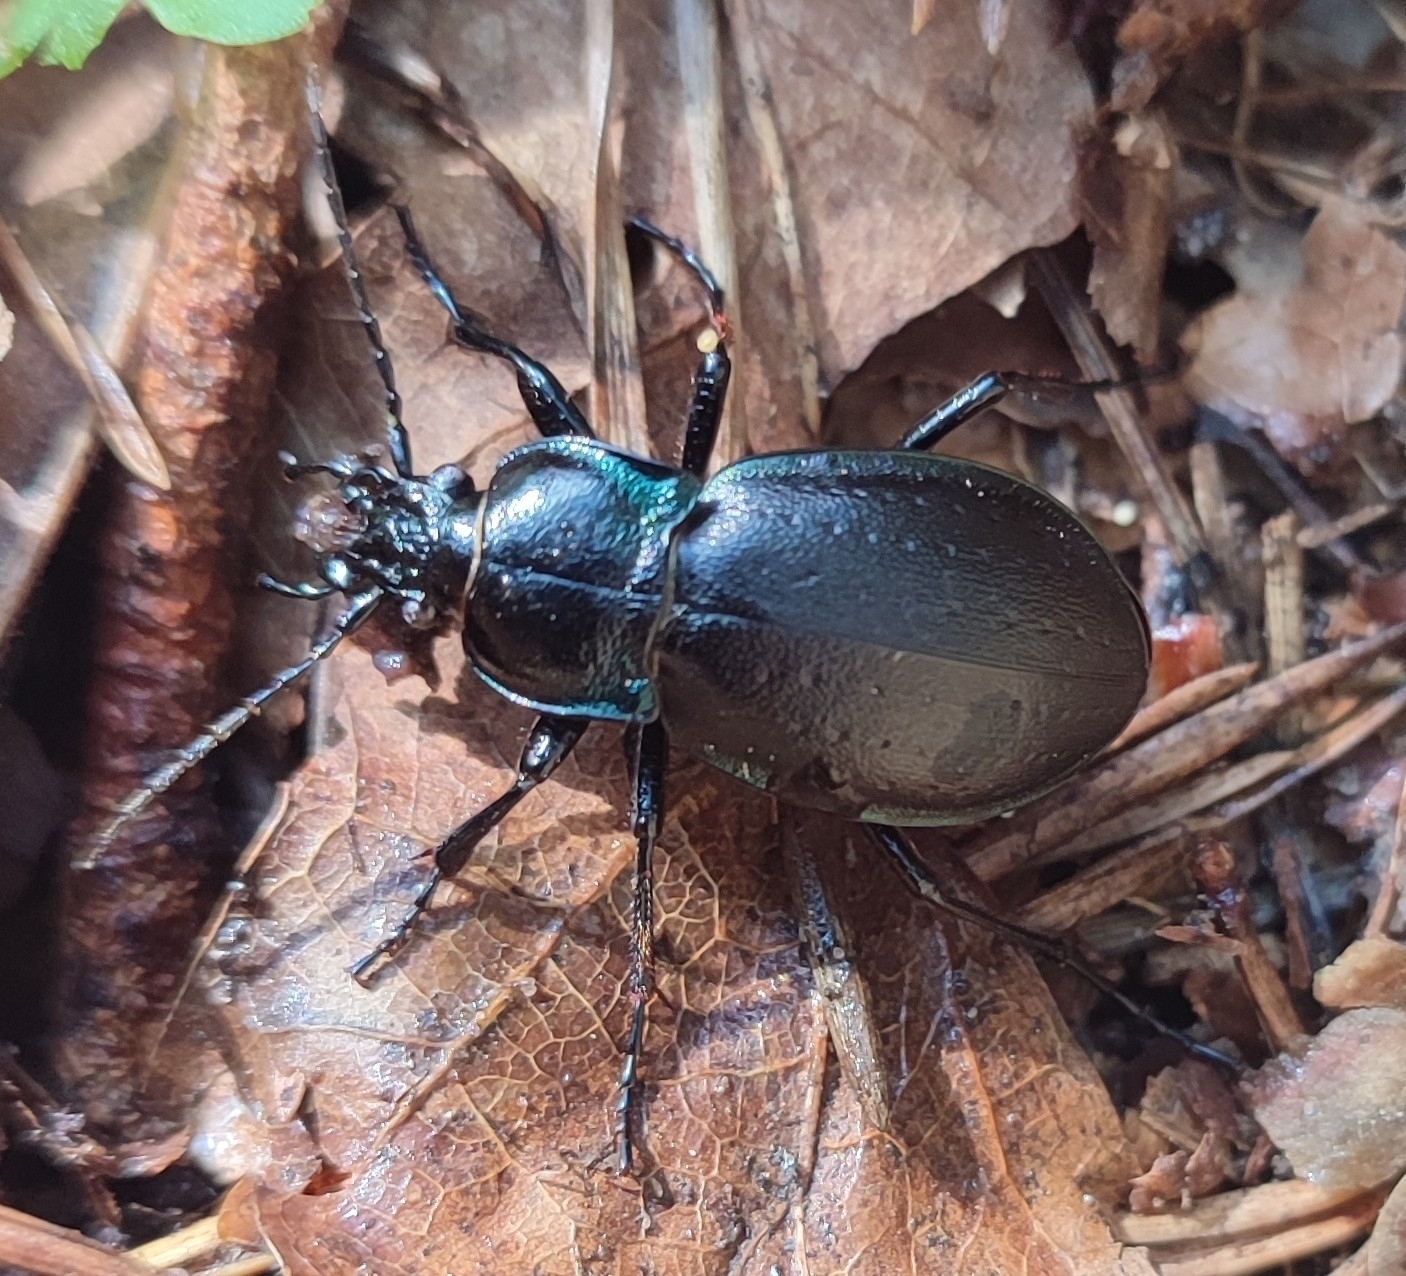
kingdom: Animalia
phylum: Arthropoda
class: Insecta
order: Coleoptera
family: Carabidae
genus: Carabus
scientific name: Carabus nemoralis
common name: European ground beetle
